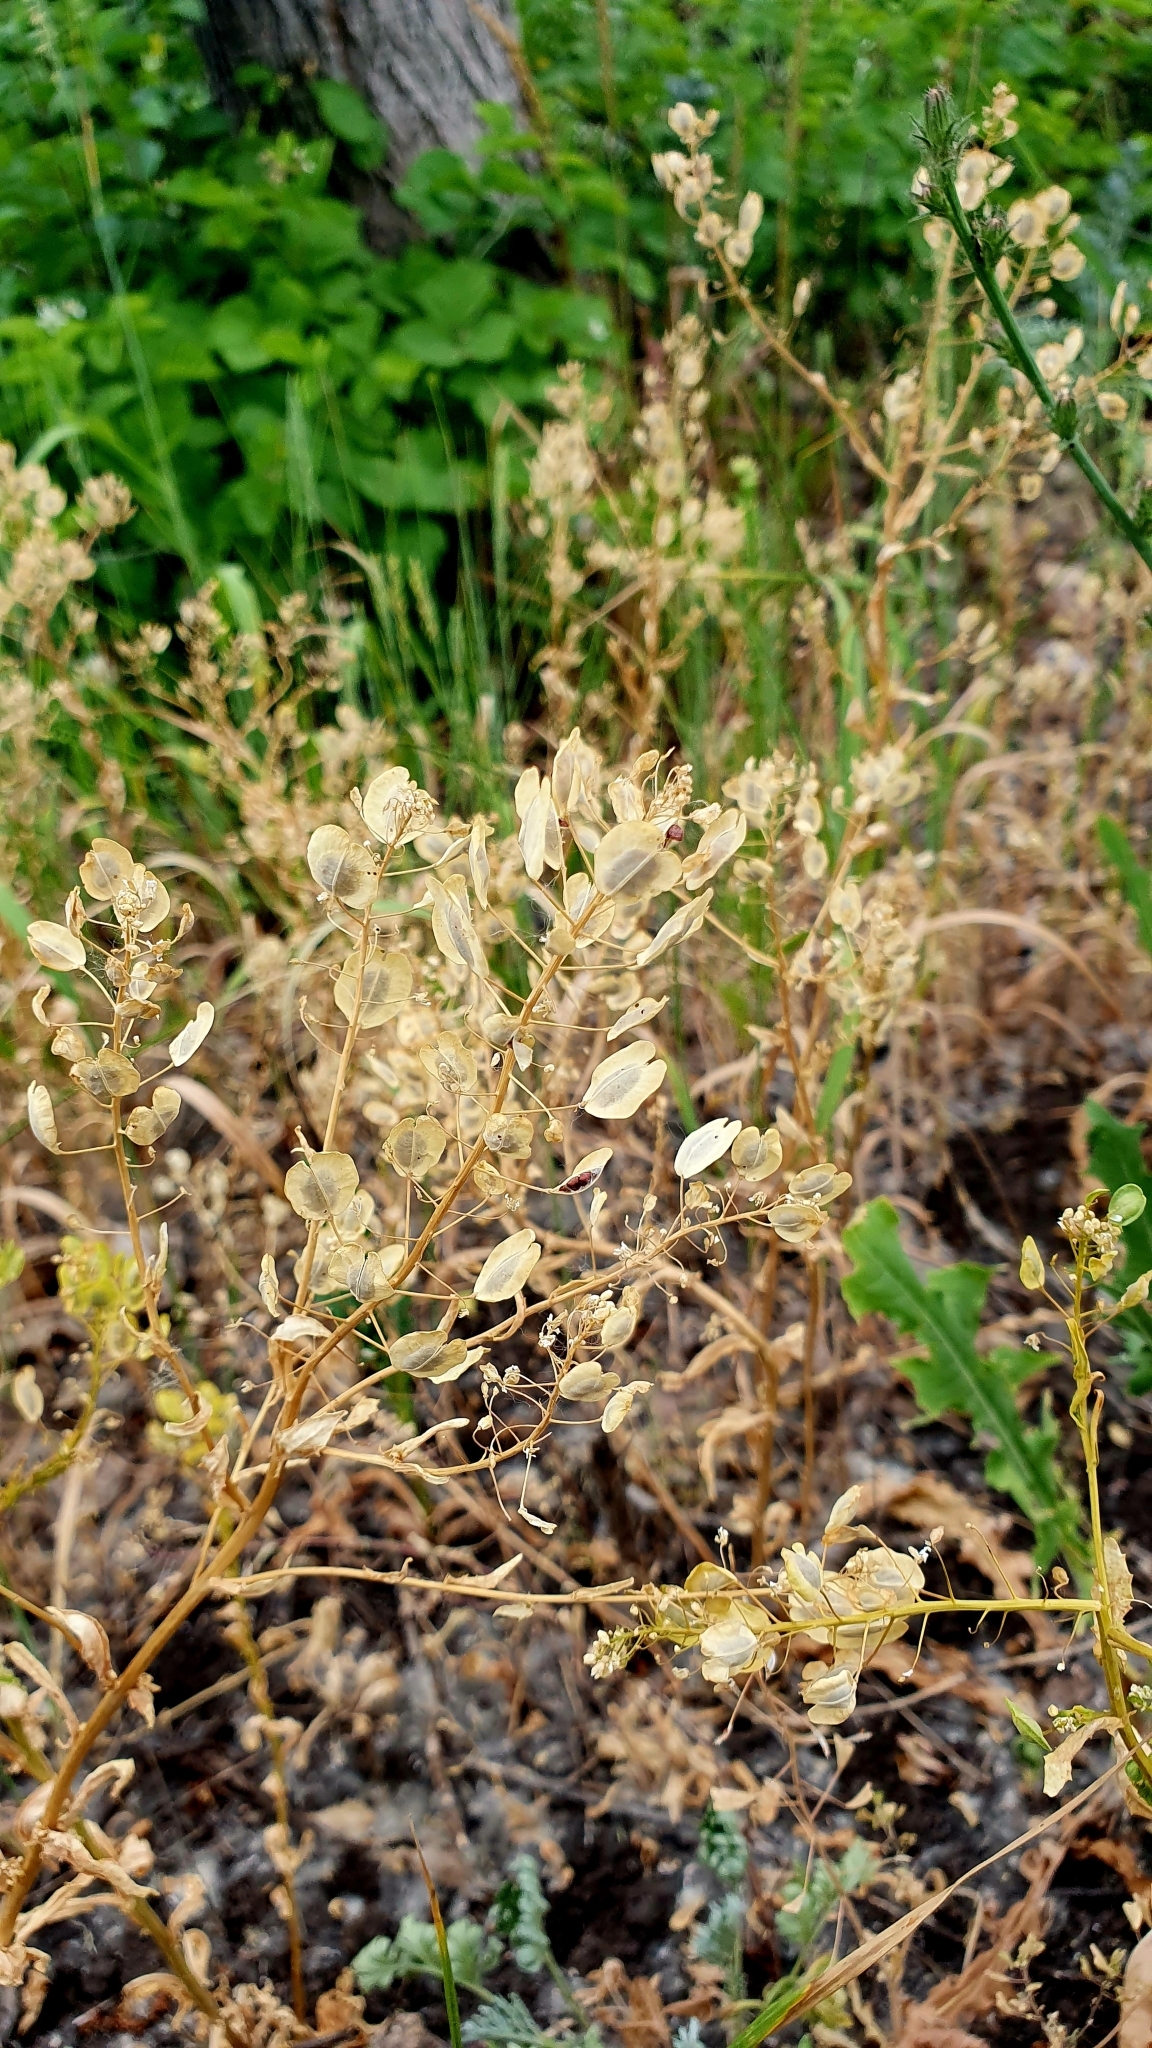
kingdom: Plantae
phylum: Tracheophyta
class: Magnoliopsida
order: Brassicales
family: Brassicaceae
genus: Thlaspi
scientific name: Thlaspi arvense
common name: Field pennycress
